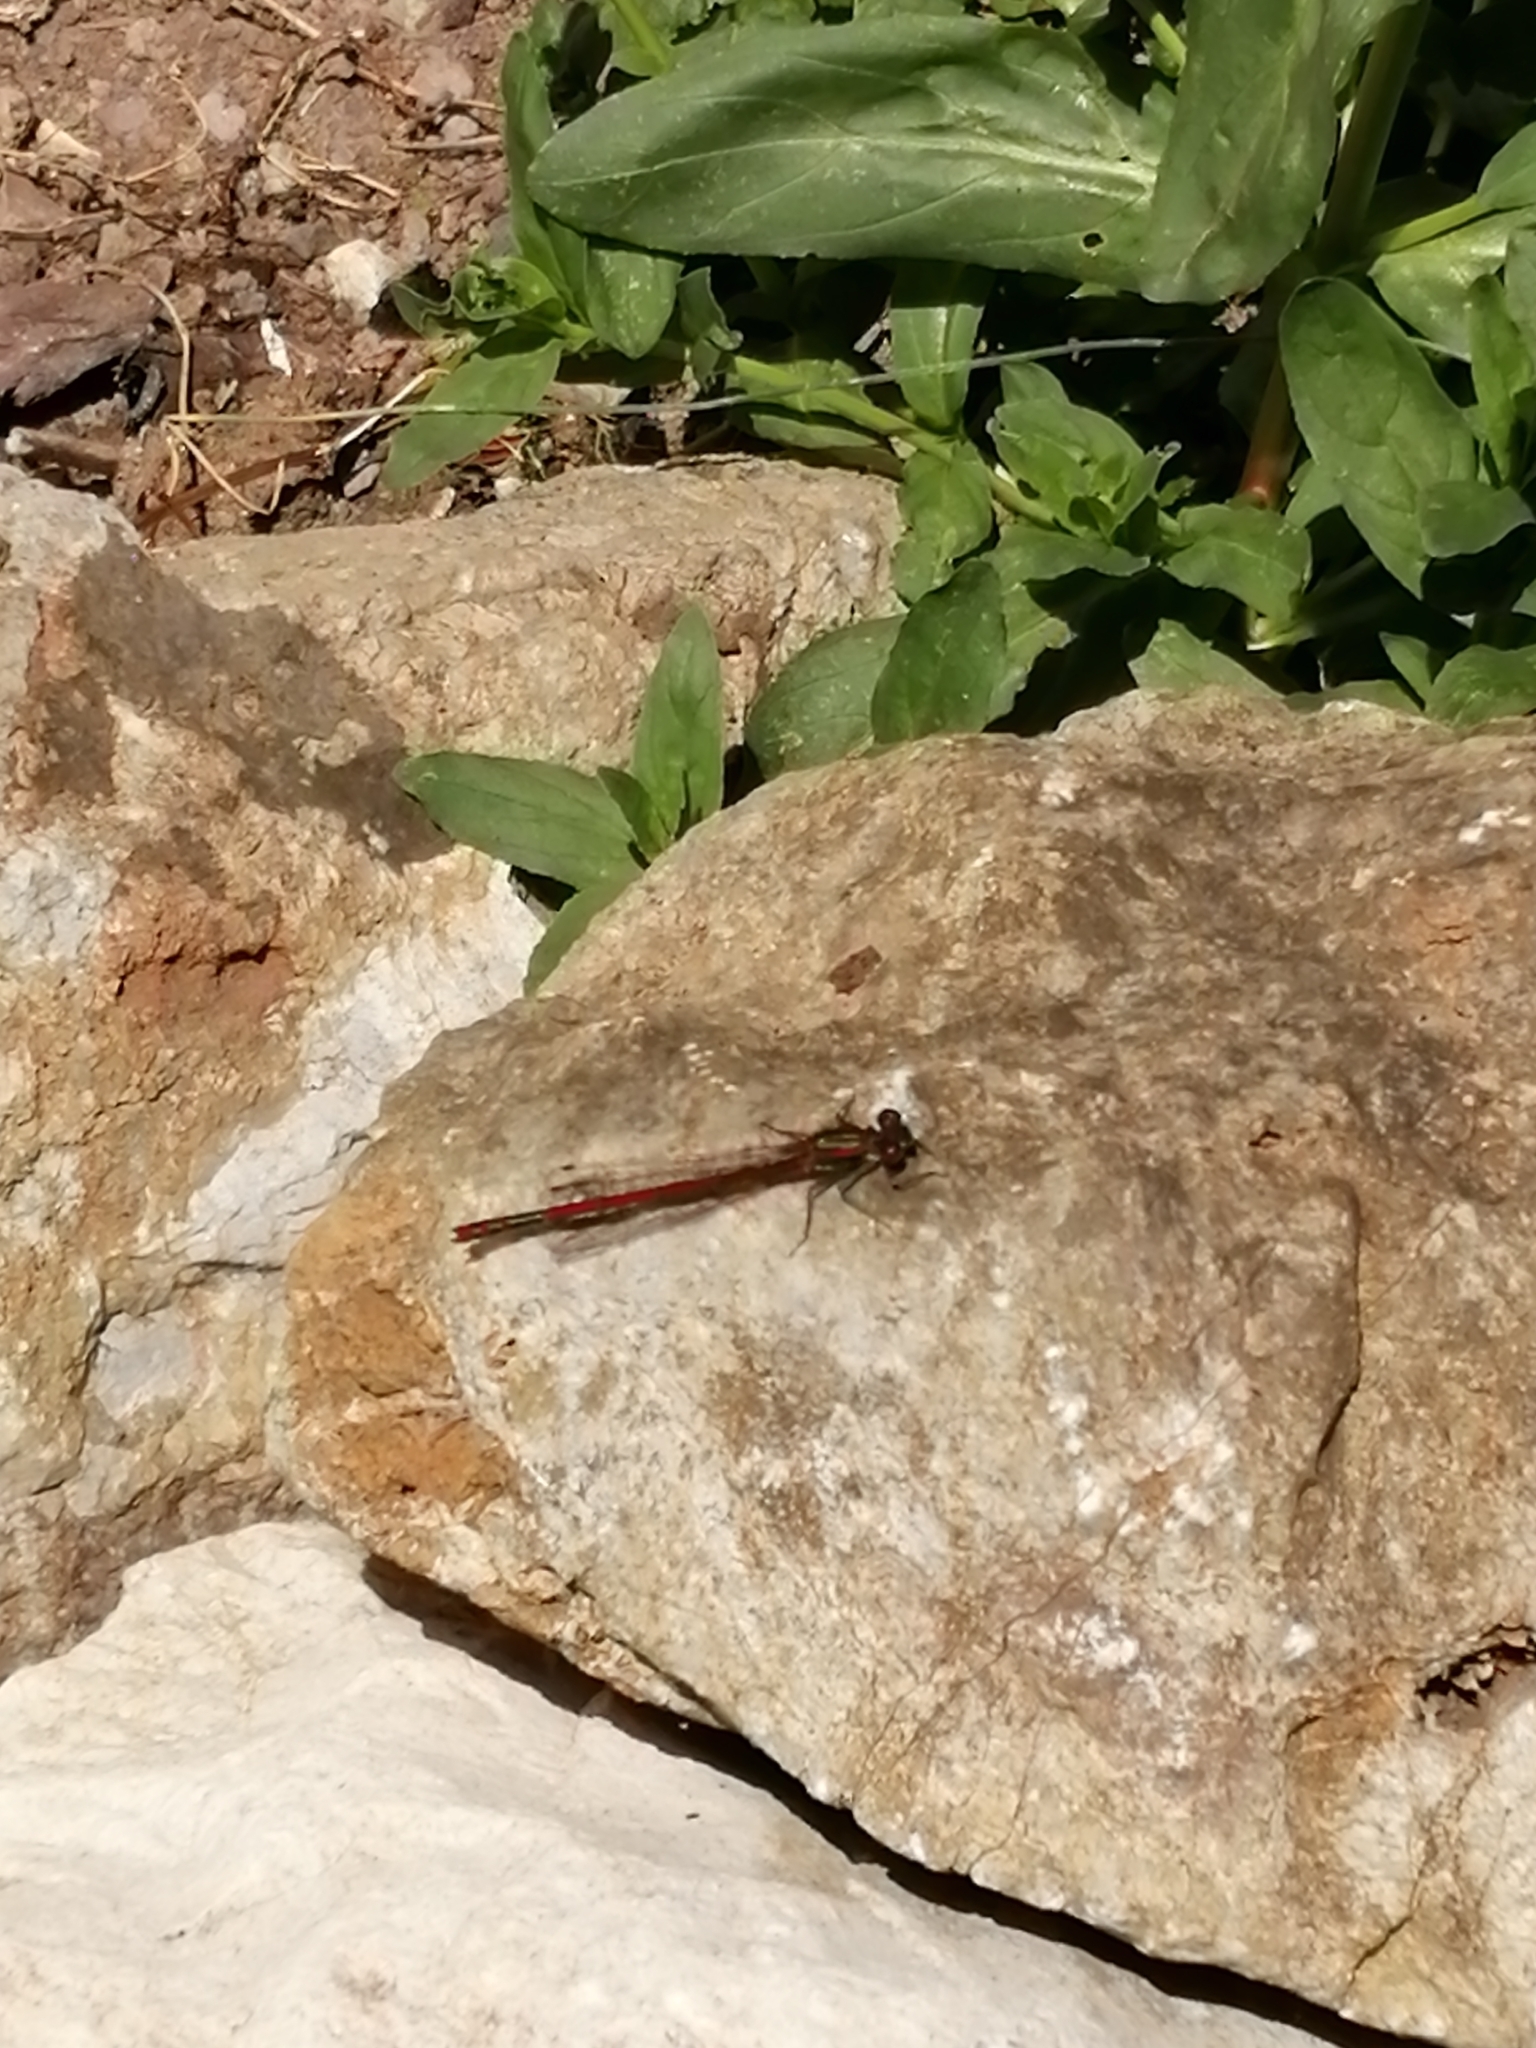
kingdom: Animalia
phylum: Arthropoda
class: Insecta
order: Odonata
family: Coenagrionidae
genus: Pyrrhosoma
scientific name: Pyrrhosoma nymphula
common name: Large red damsel
